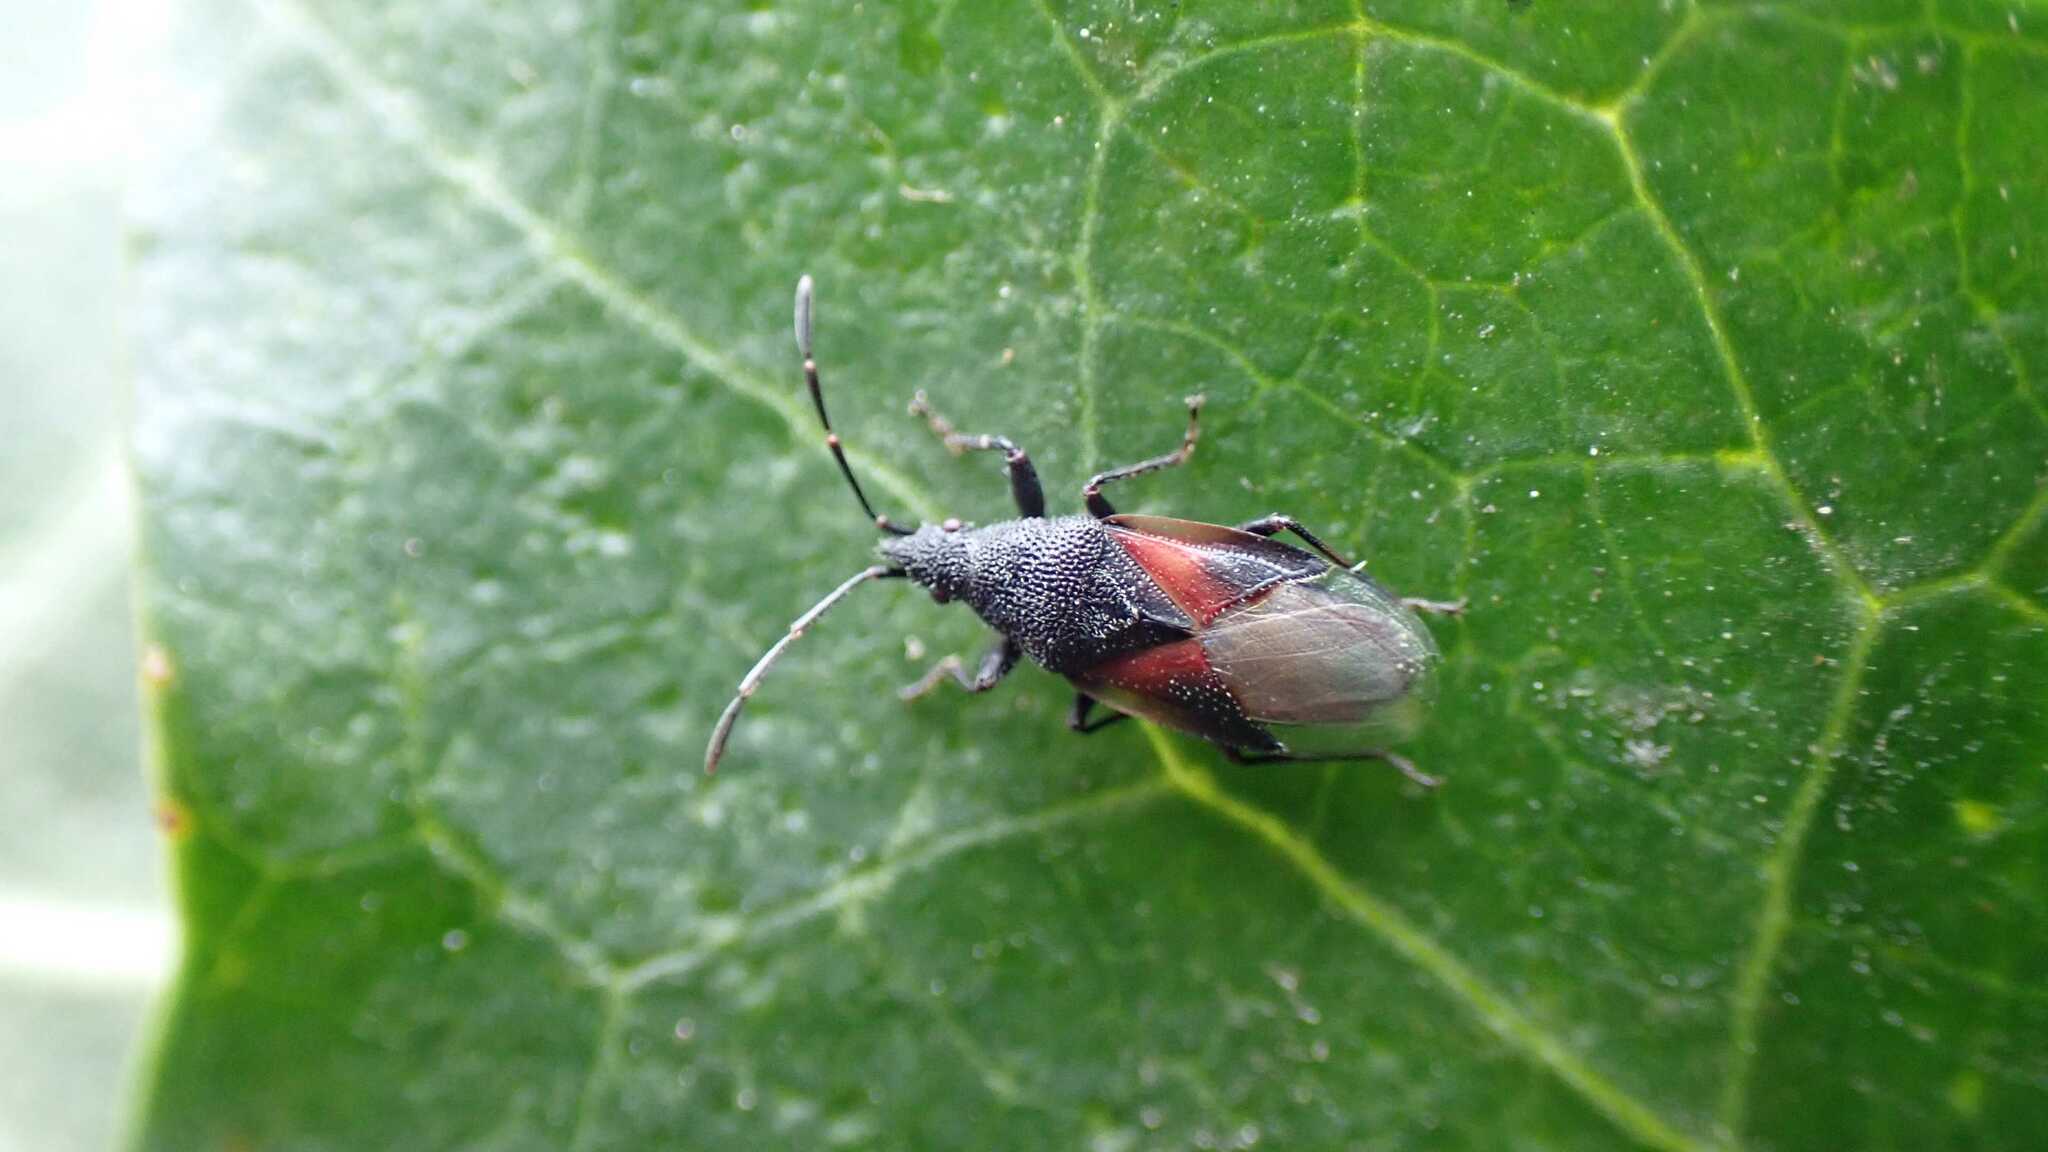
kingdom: Animalia
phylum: Arthropoda
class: Insecta
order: Hemiptera
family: Oxycarenidae
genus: Oxycarenus
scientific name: Oxycarenus lavaterae
